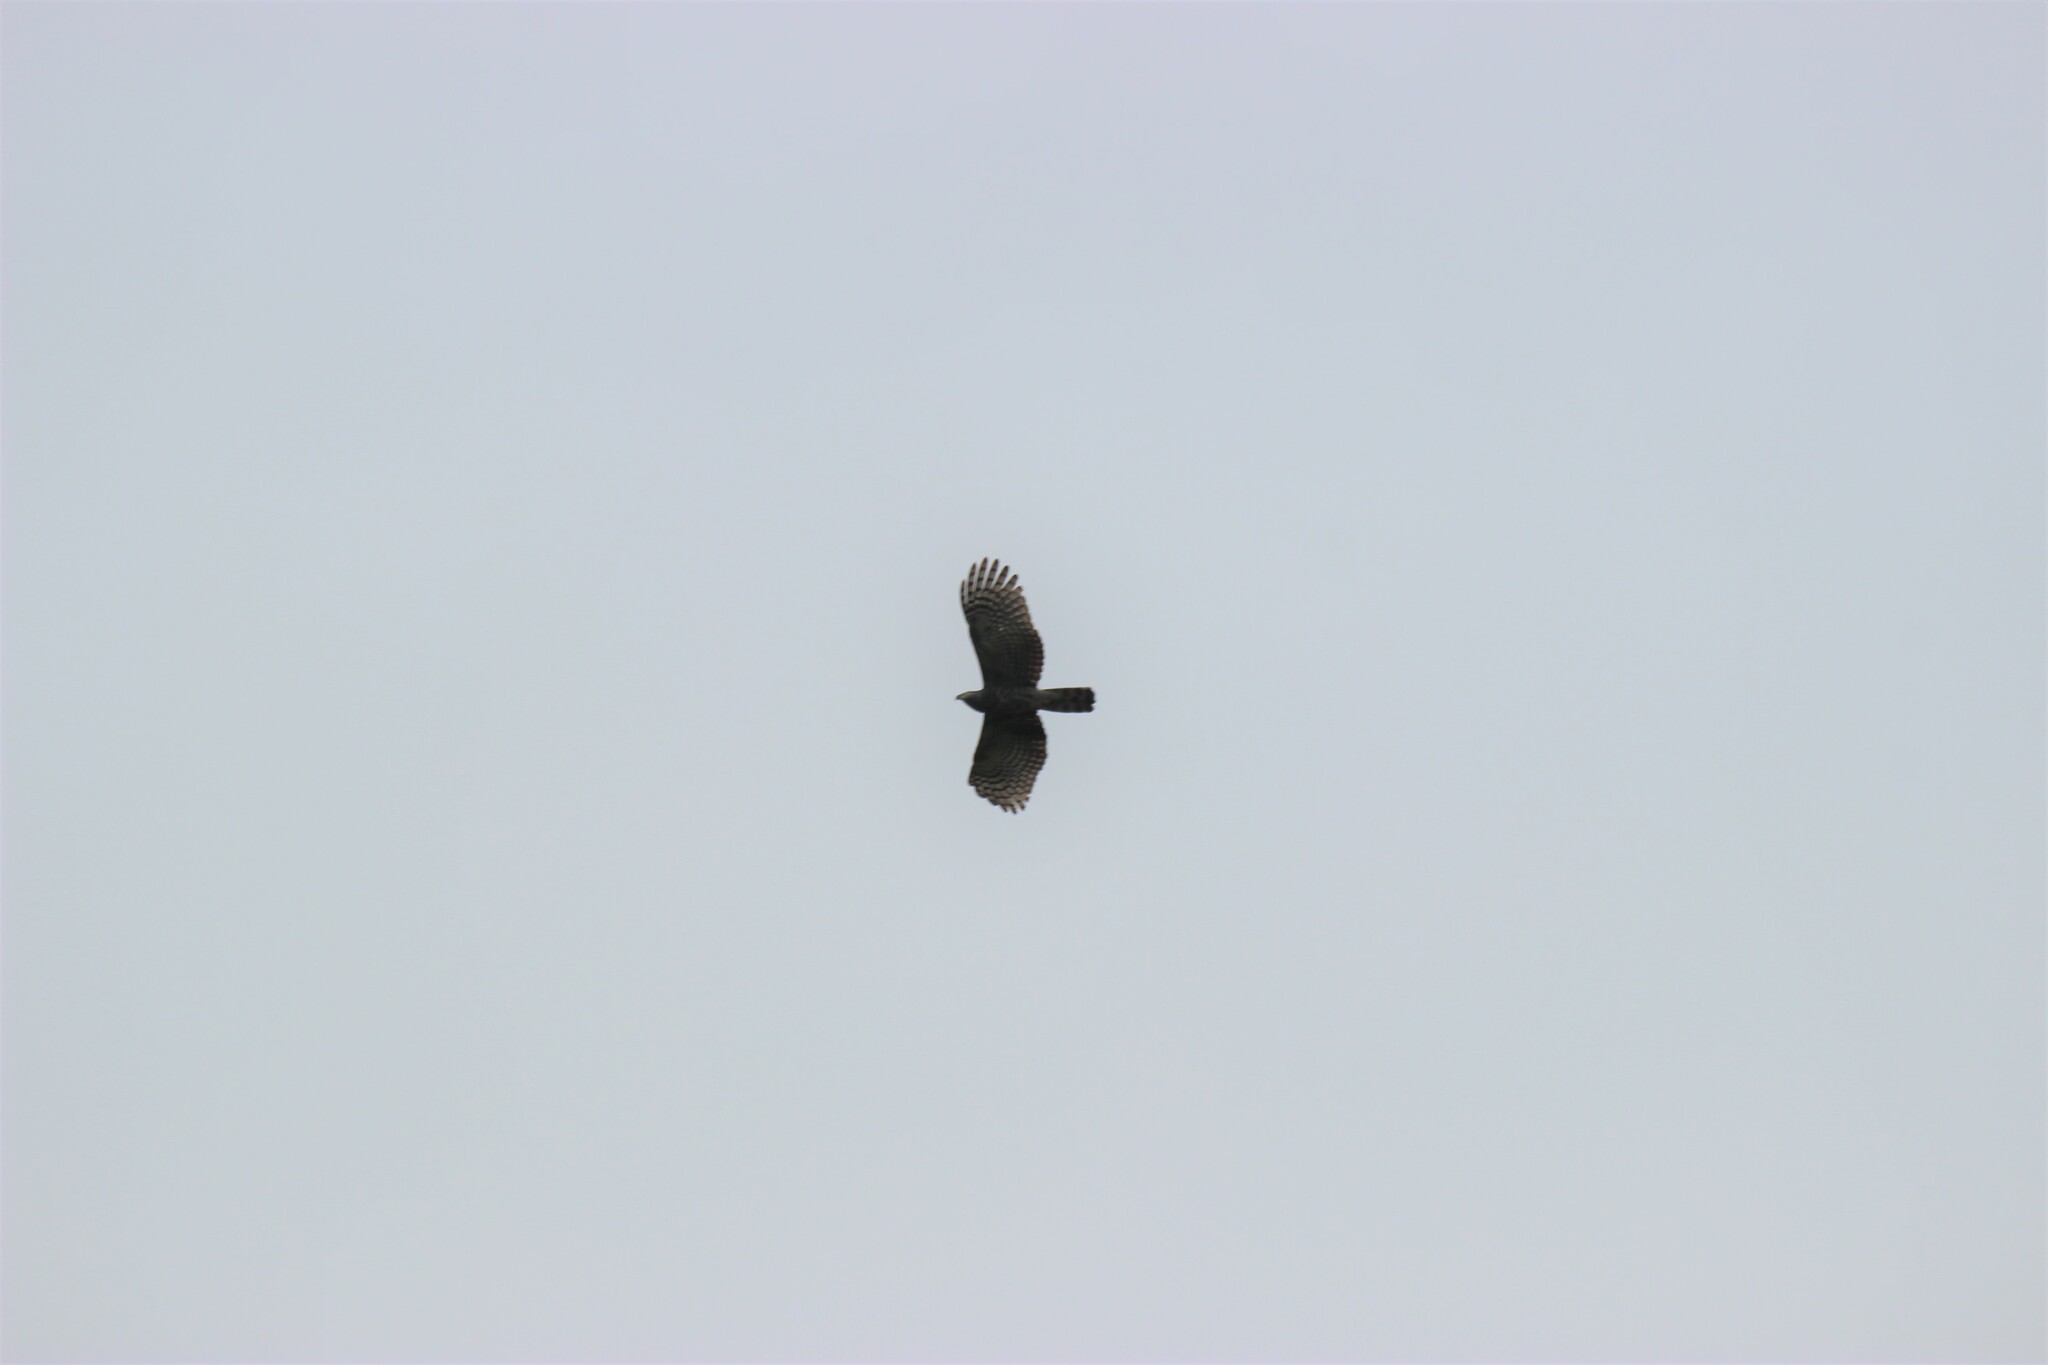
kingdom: Animalia
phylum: Chordata
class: Aves
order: Accipitriformes
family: Accipitridae
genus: Chondrohierax
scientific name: Chondrohierax uncinatus
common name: Hook-billed kite
